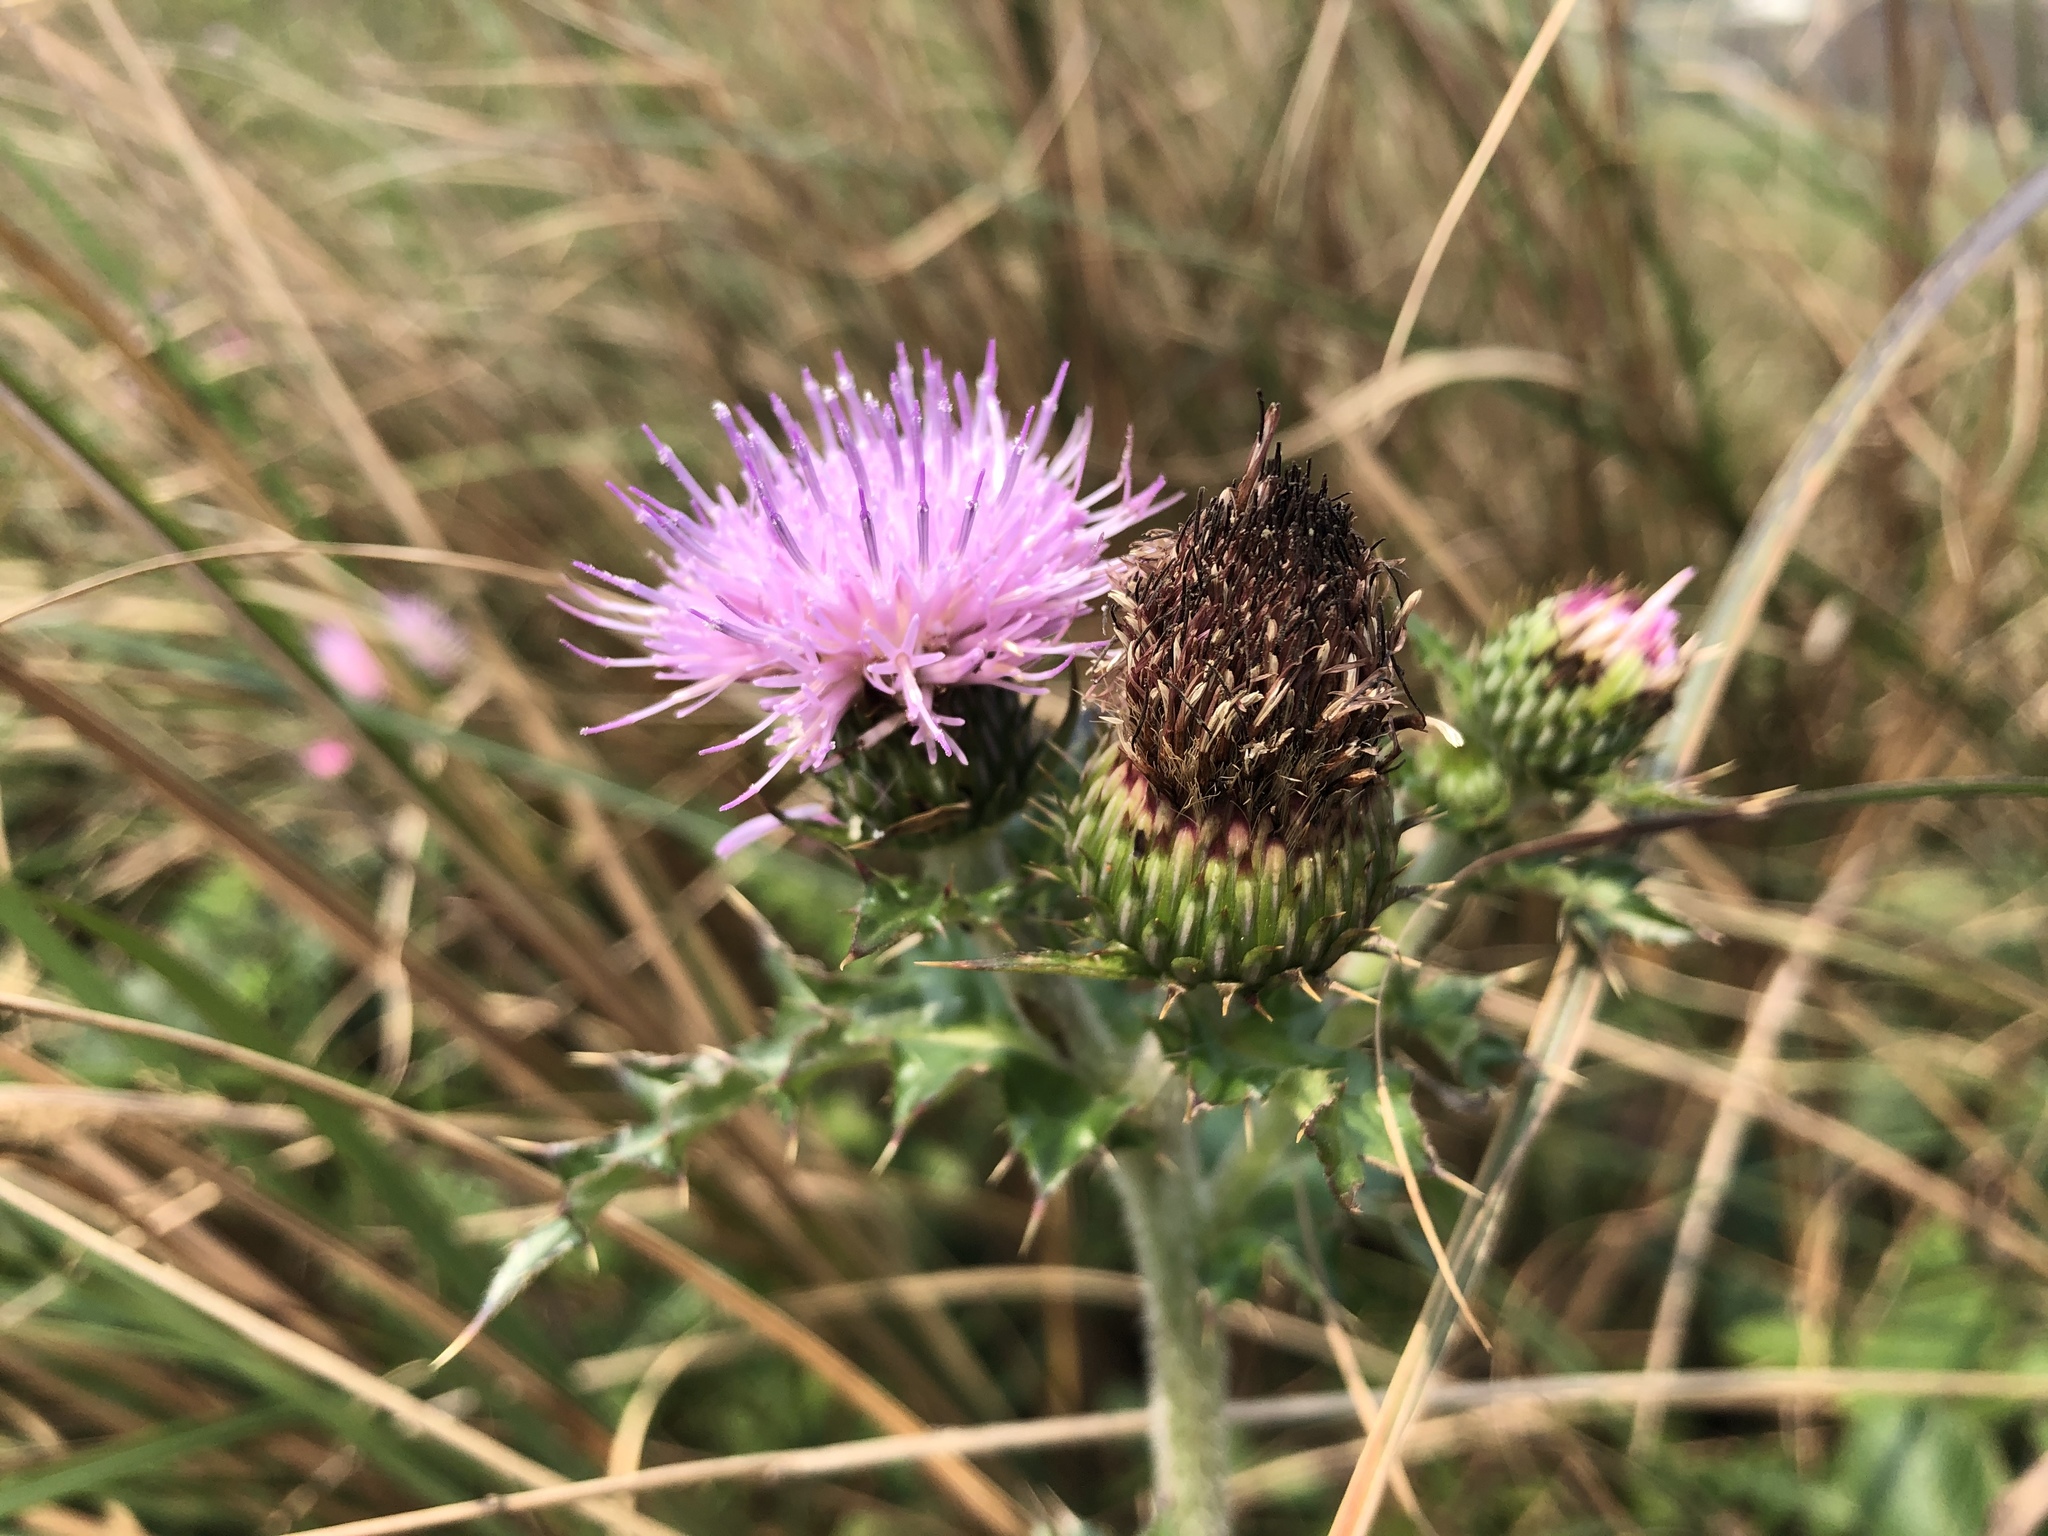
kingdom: Plantae
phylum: Tracheophyta
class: Magnoliopsida
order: Asterales
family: Asteraceae
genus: Cirsium
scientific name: Cirsium japonicum
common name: Japanese thistle
